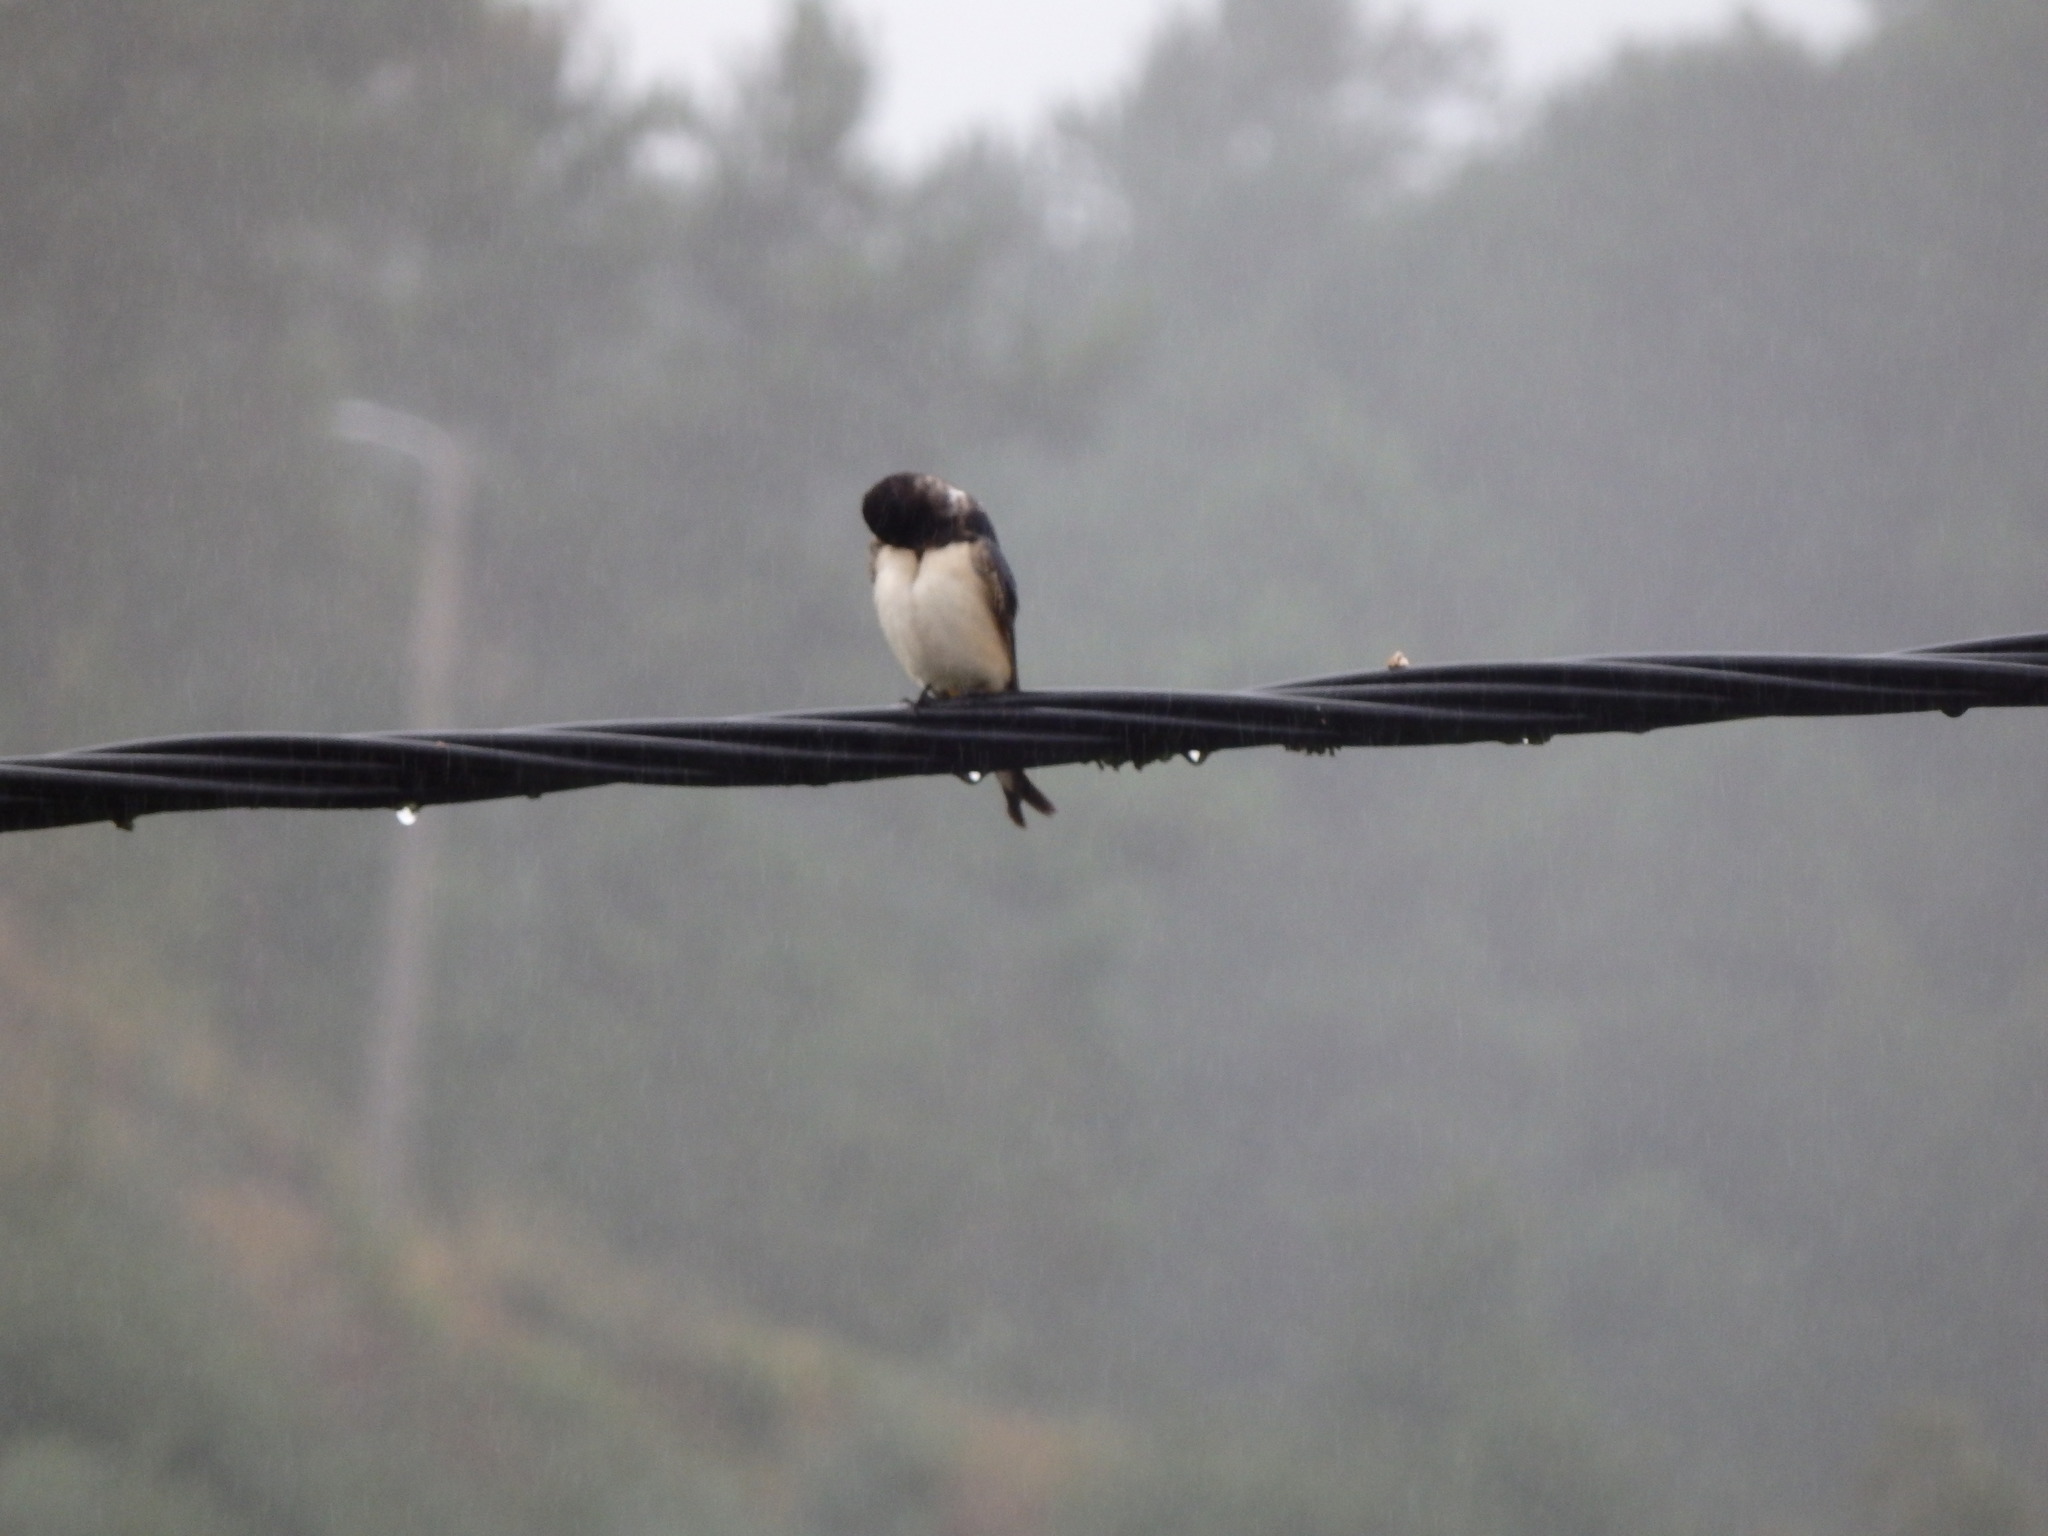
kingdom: Animalia
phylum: Chordata
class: Aves
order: Passeriformes
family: Hirundinidae
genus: Hirundo
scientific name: Hirundo rustica
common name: Barn swallow
